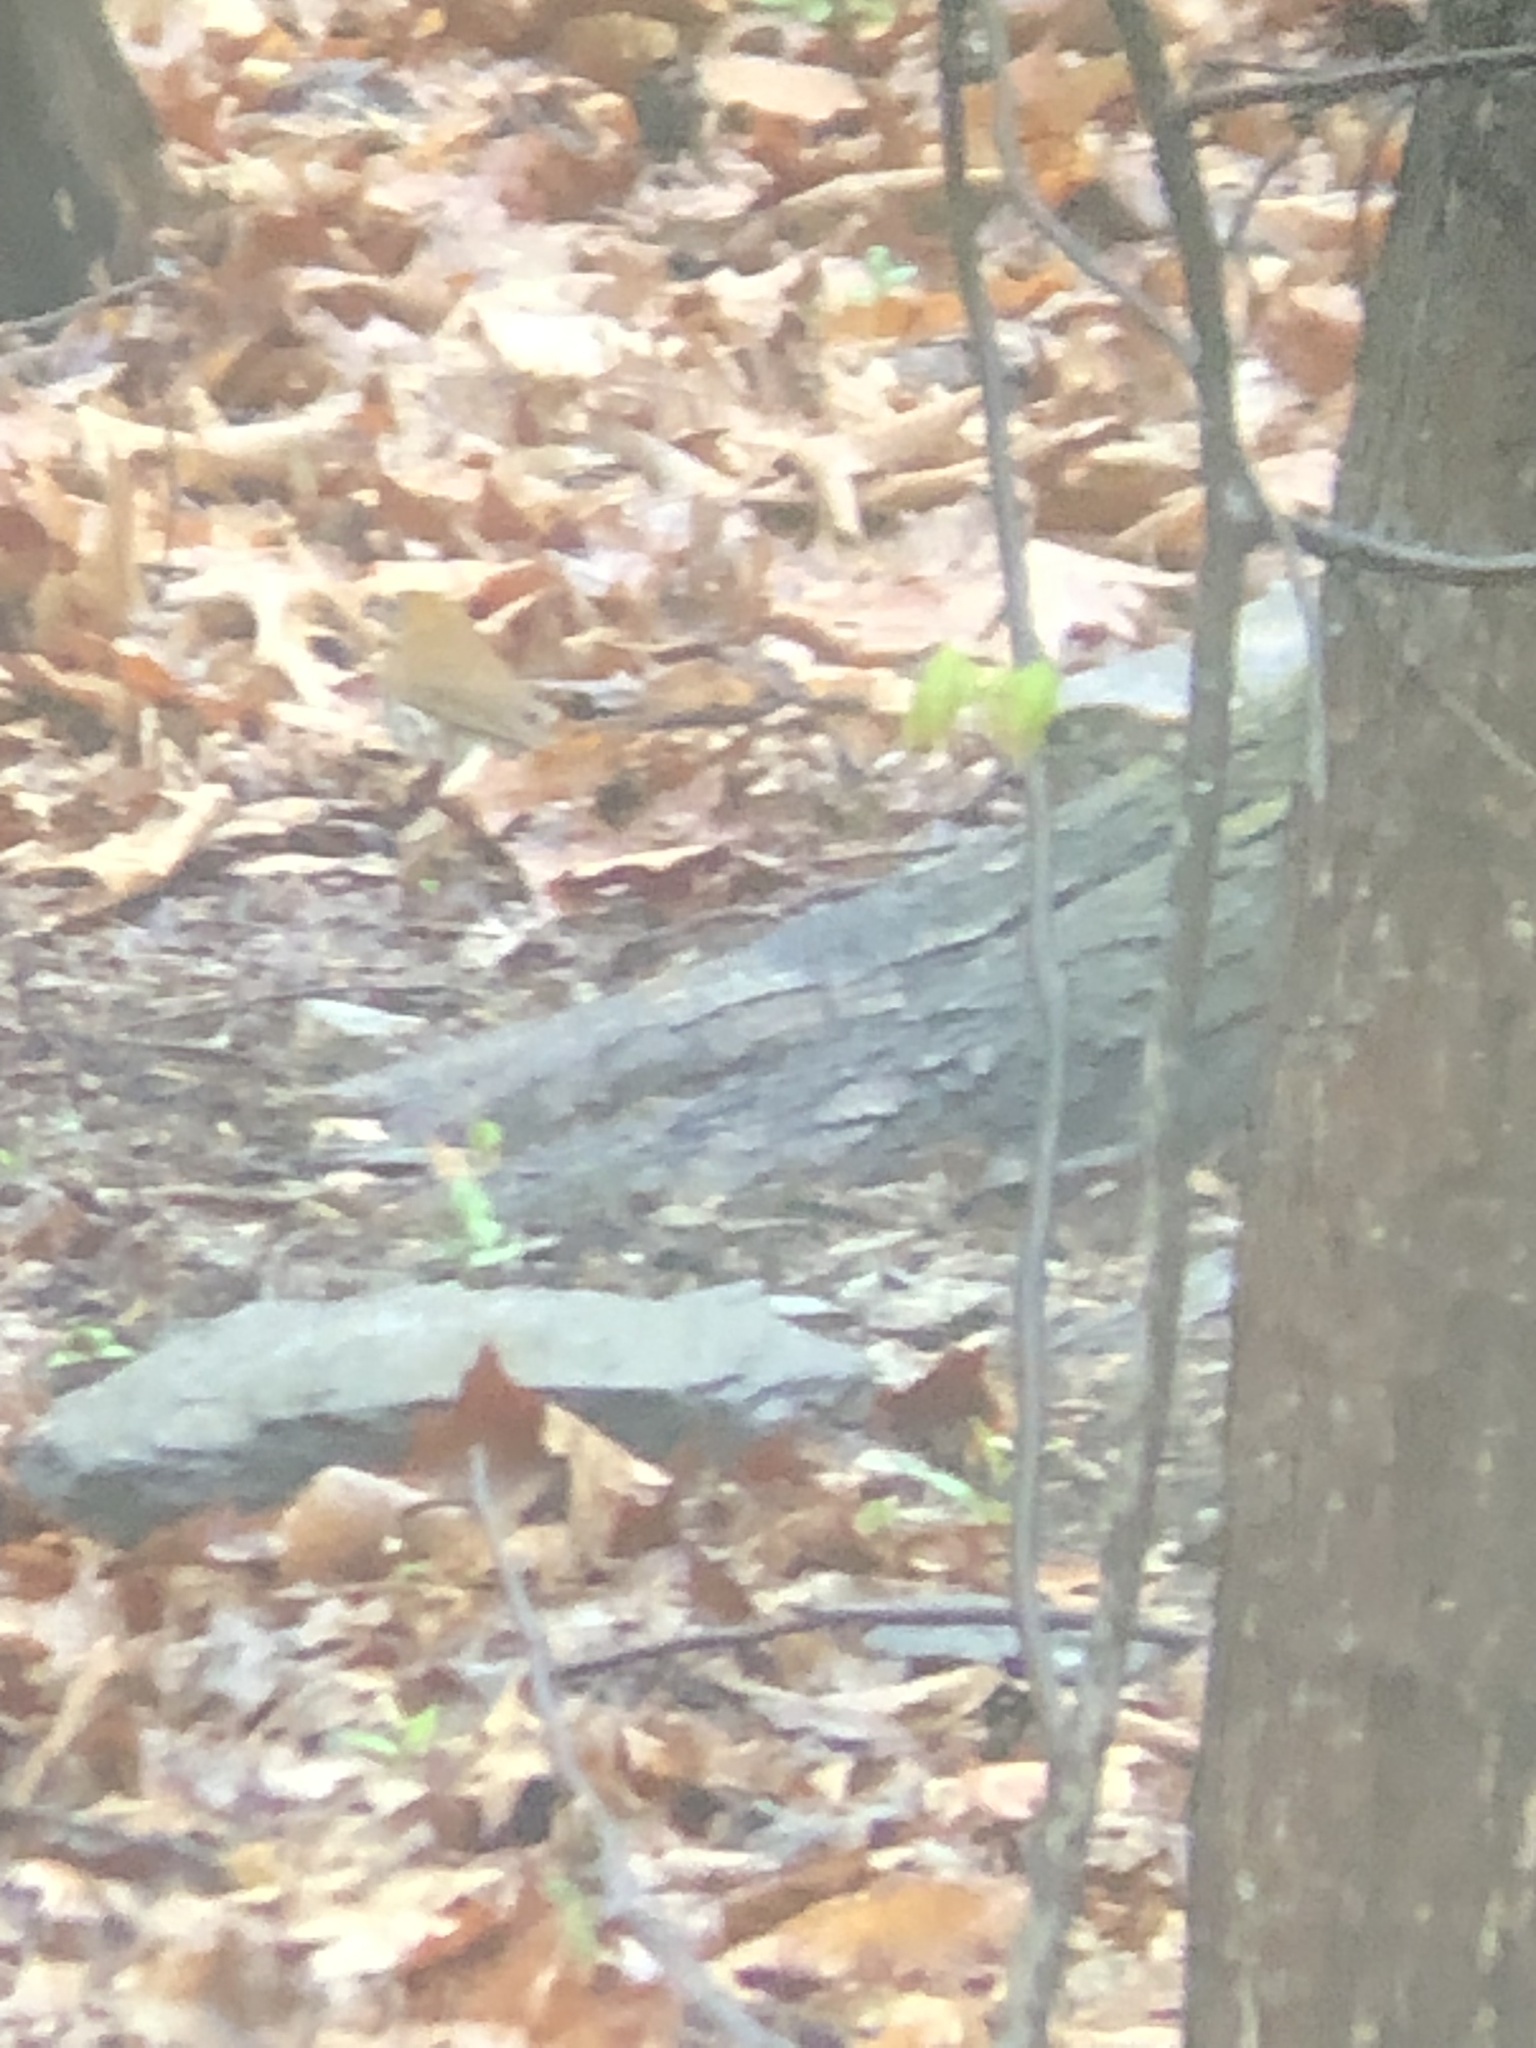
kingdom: Animalia
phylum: Chordata
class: Aves
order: Passeriformes
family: Turdidae
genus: Hylocichla
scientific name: Hylocichla mustelina
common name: Wood thrush
